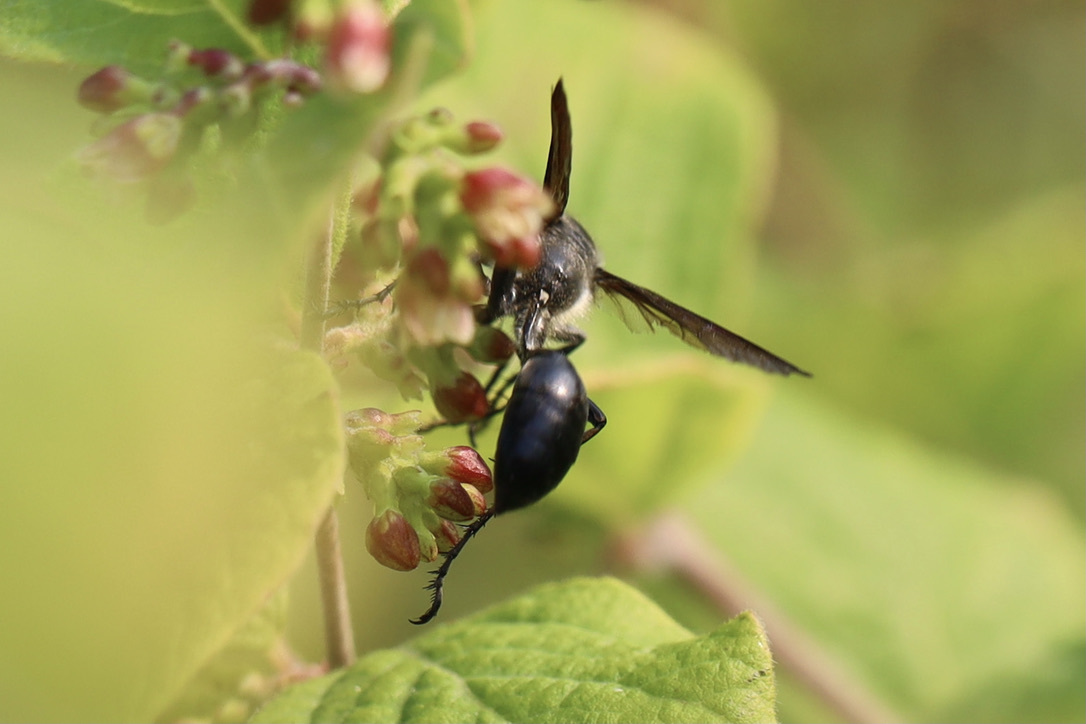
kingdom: Animalia
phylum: Arthropoda
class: Insecta
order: Hymenoptera
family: Sphecidae
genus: Isodontia
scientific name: Isodontia mexicana
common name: Mud dauber
